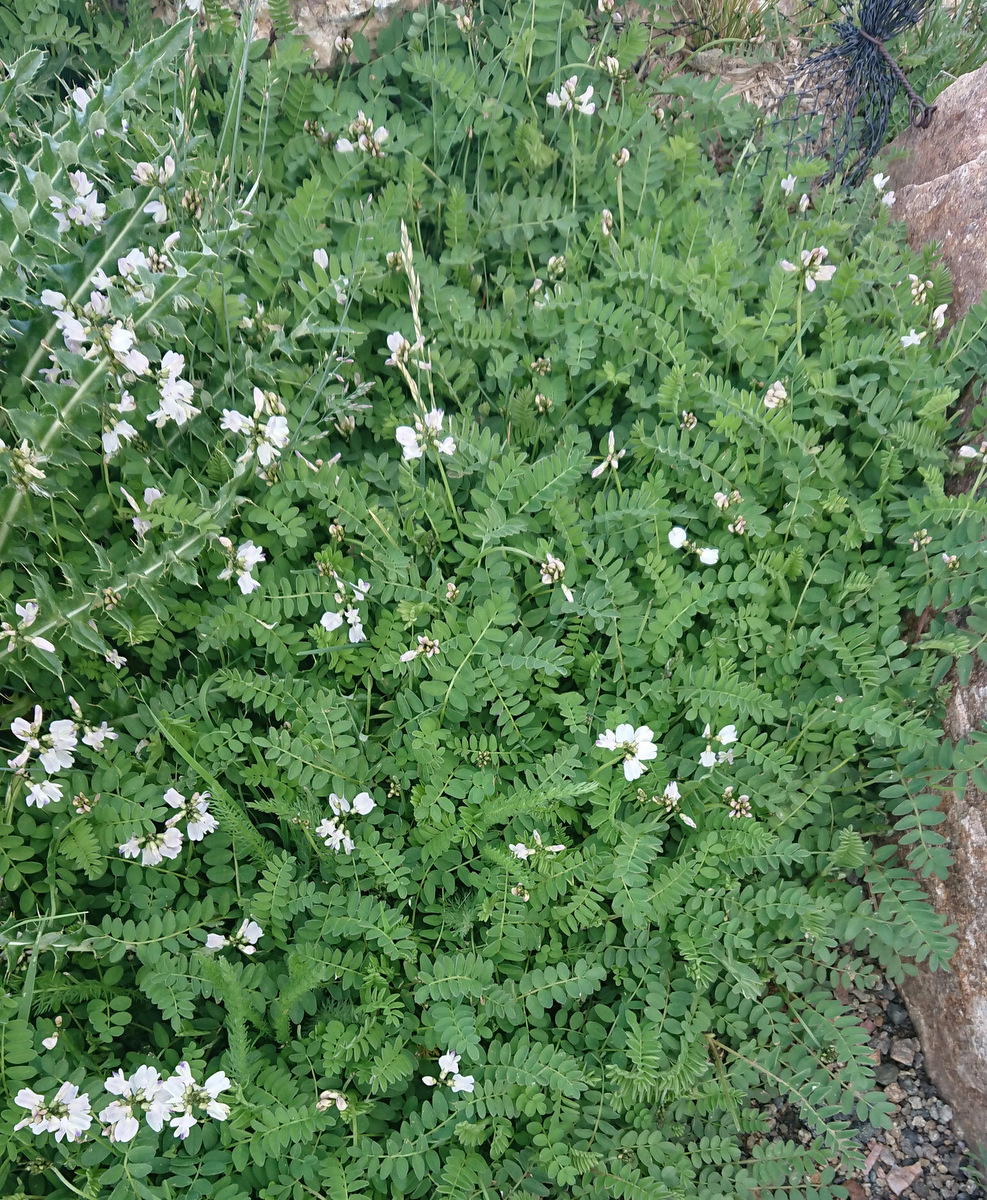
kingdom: Plantae
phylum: Tracheophyta
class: Magnoliopsida
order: Fabales
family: Fabaceae
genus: Astragalus
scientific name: Astragalus alpinus
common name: Alpine milk-vetch
